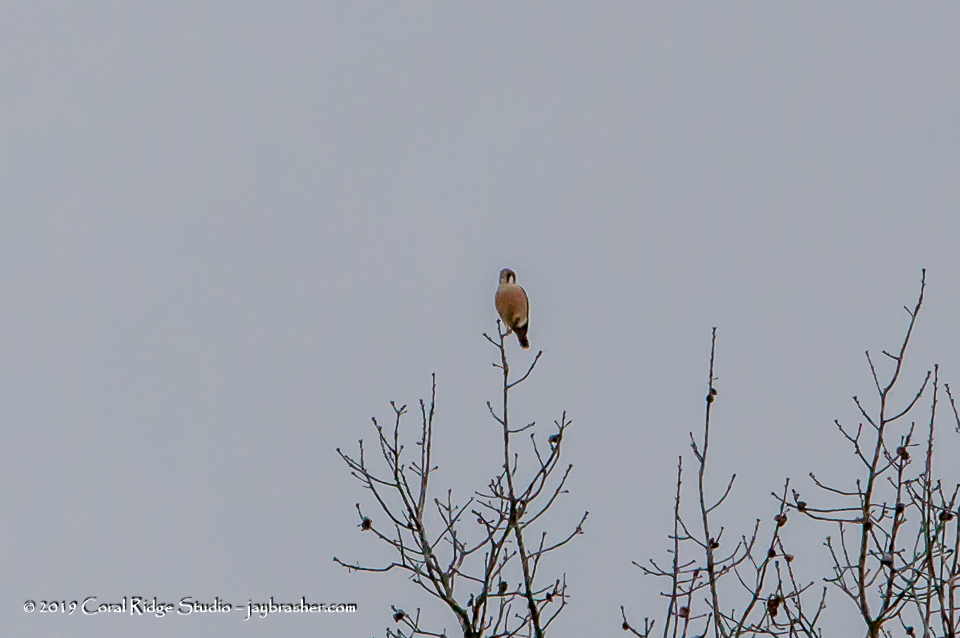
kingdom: Animalia
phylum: Chordata
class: Aves
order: Falconiformes
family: Falconidae
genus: Falco
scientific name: Falco sparverius
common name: American kestrel
